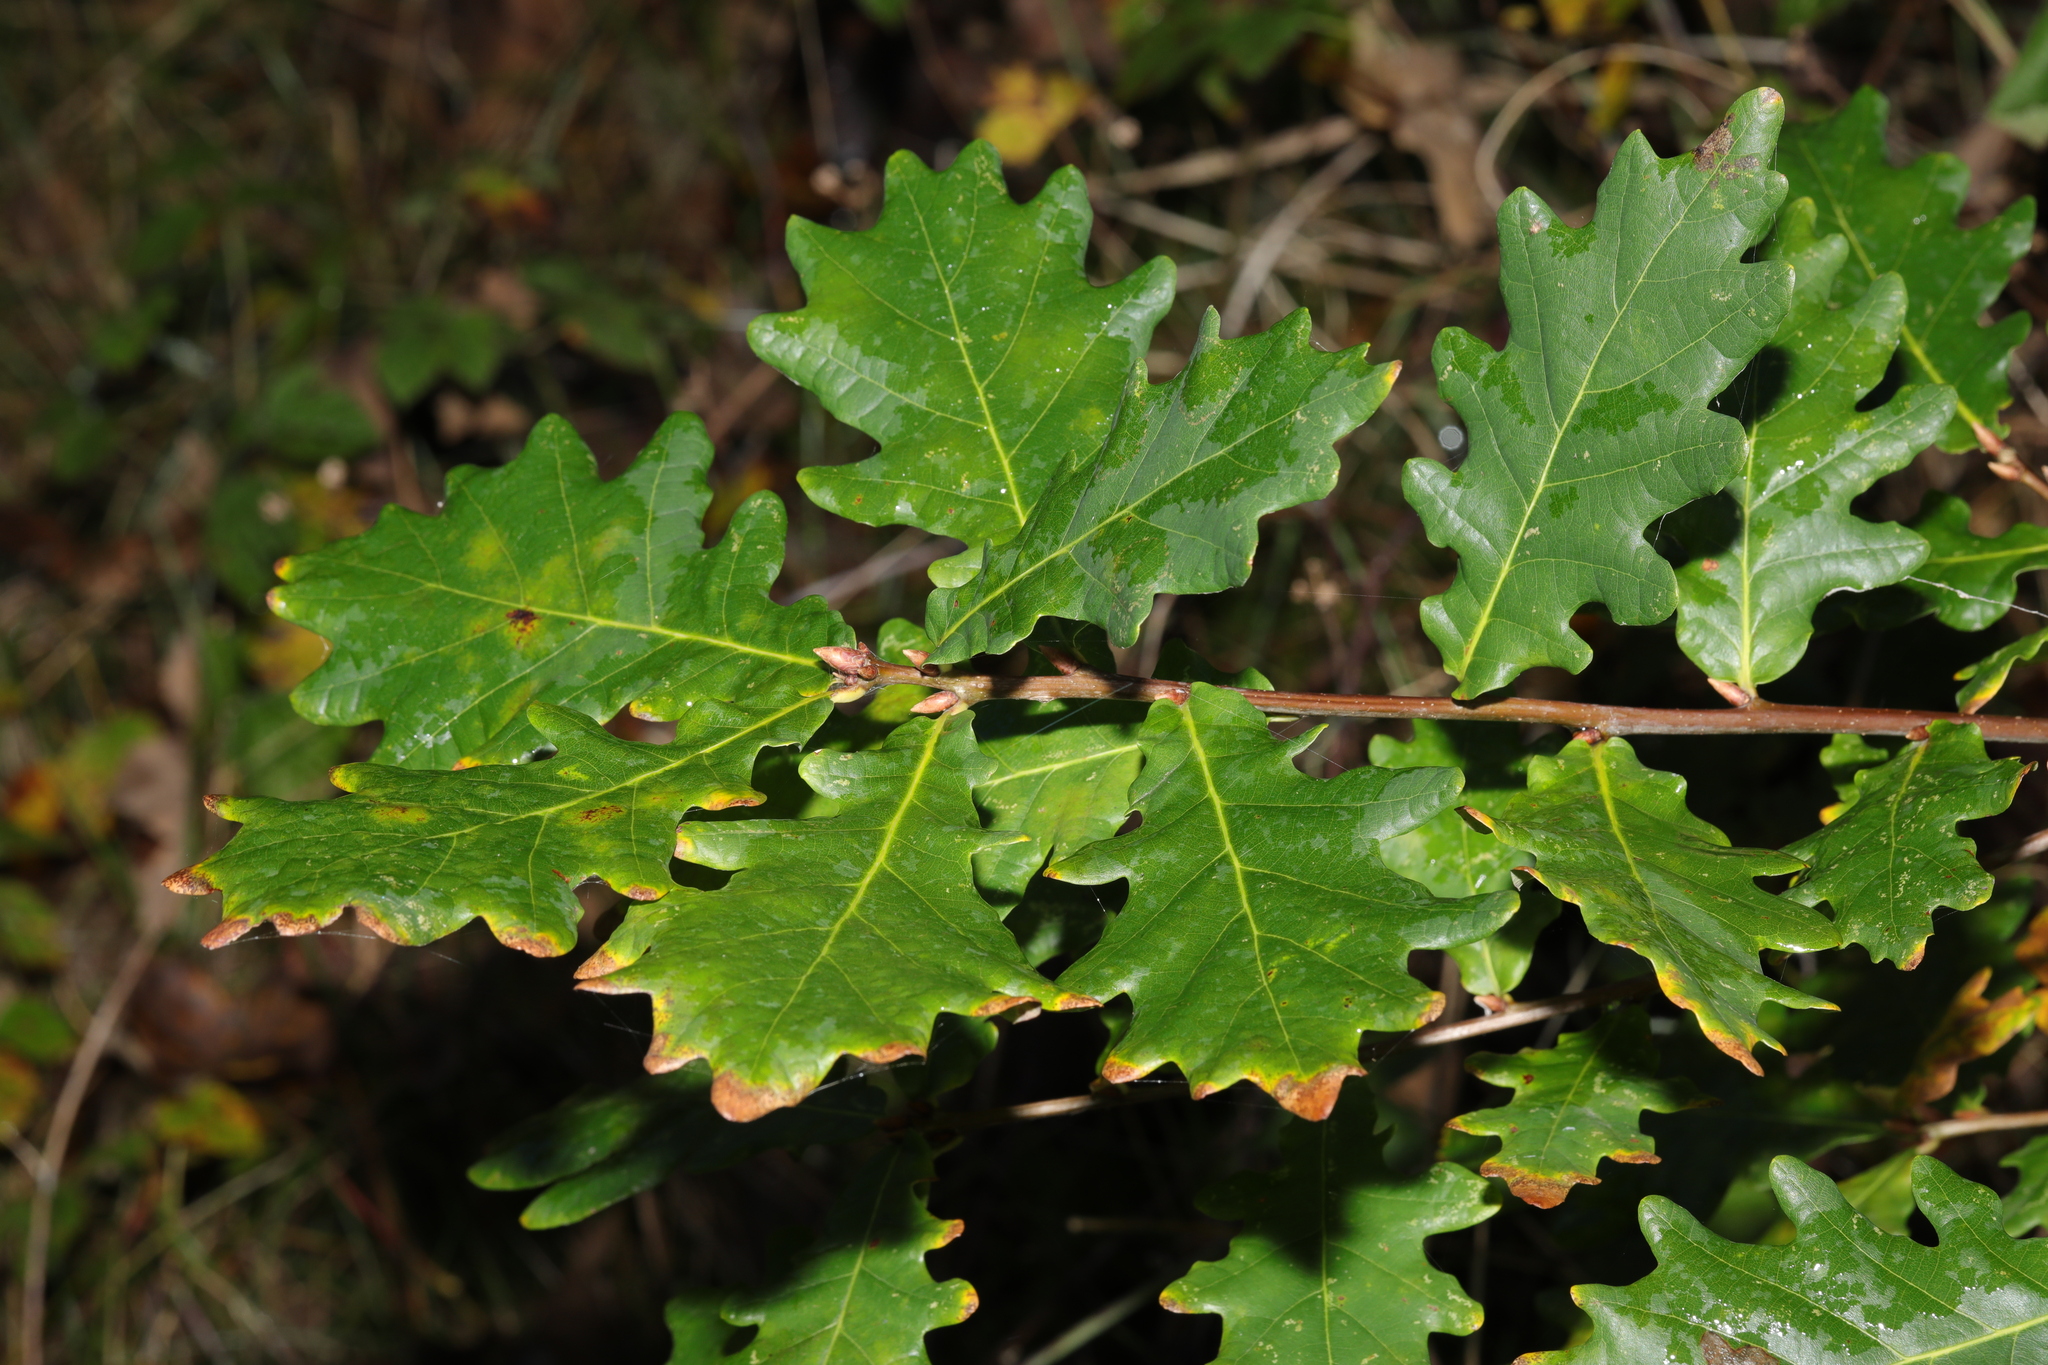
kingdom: Plantae
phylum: Tracheophyta
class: Magnoliopsida
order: Fagales
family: Fagaceae
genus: Quercus
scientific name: Quercus robur
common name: Pedunculate oak
